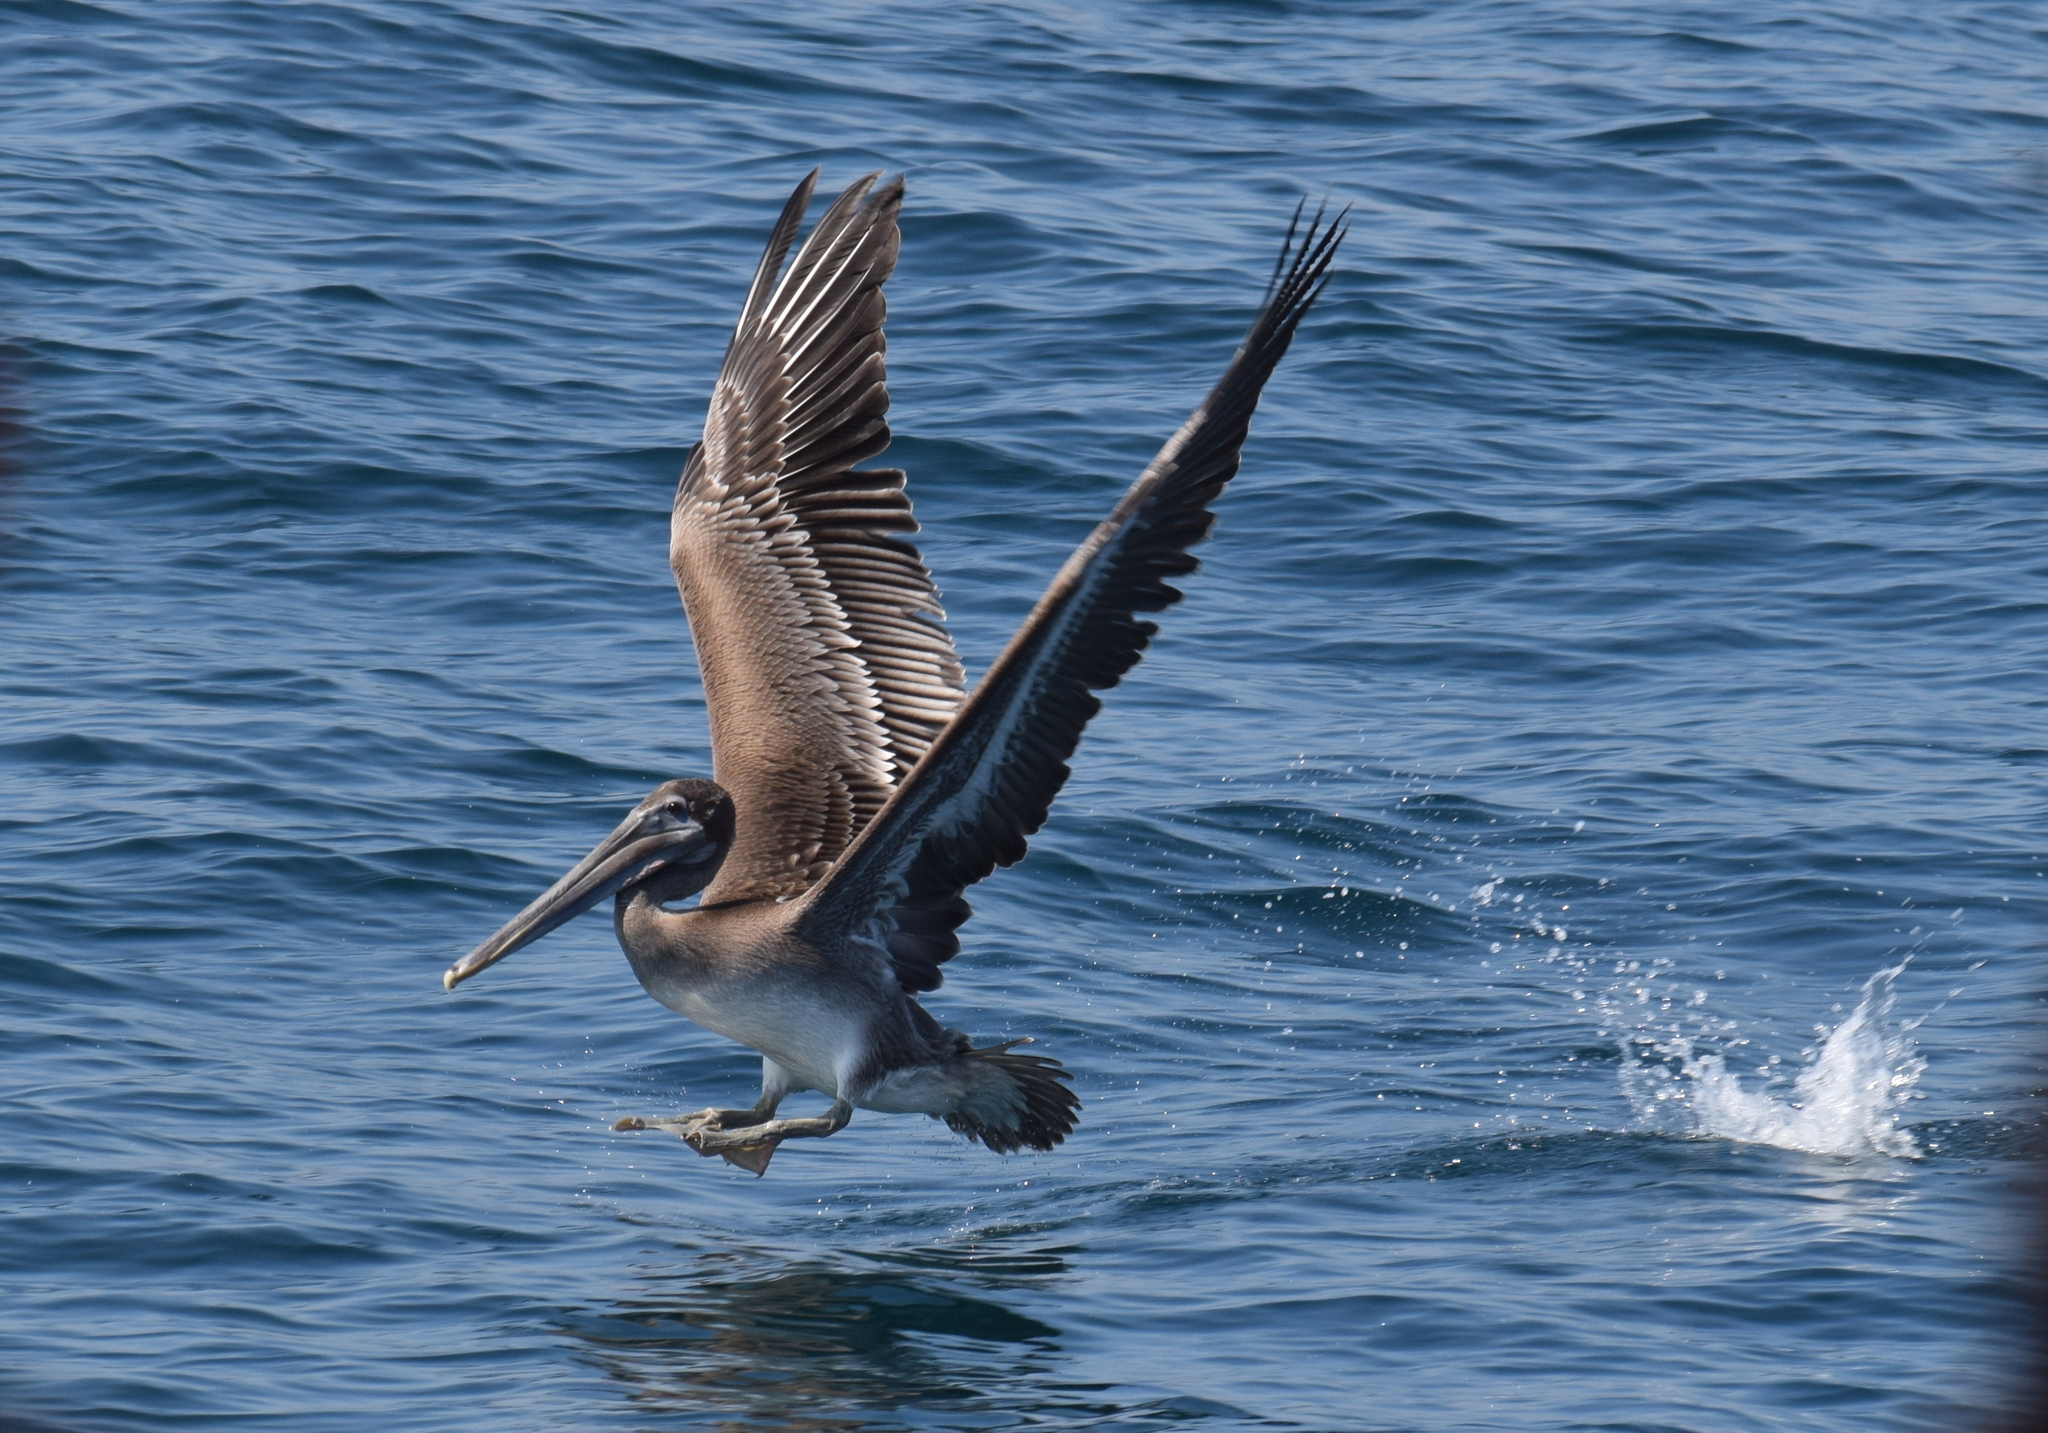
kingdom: Animalia
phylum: Chordata
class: Aves
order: Pelecaniformes
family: Pelecanidae
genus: Pelecanus
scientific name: Pelecanus occidentalis
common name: Brown pelican
